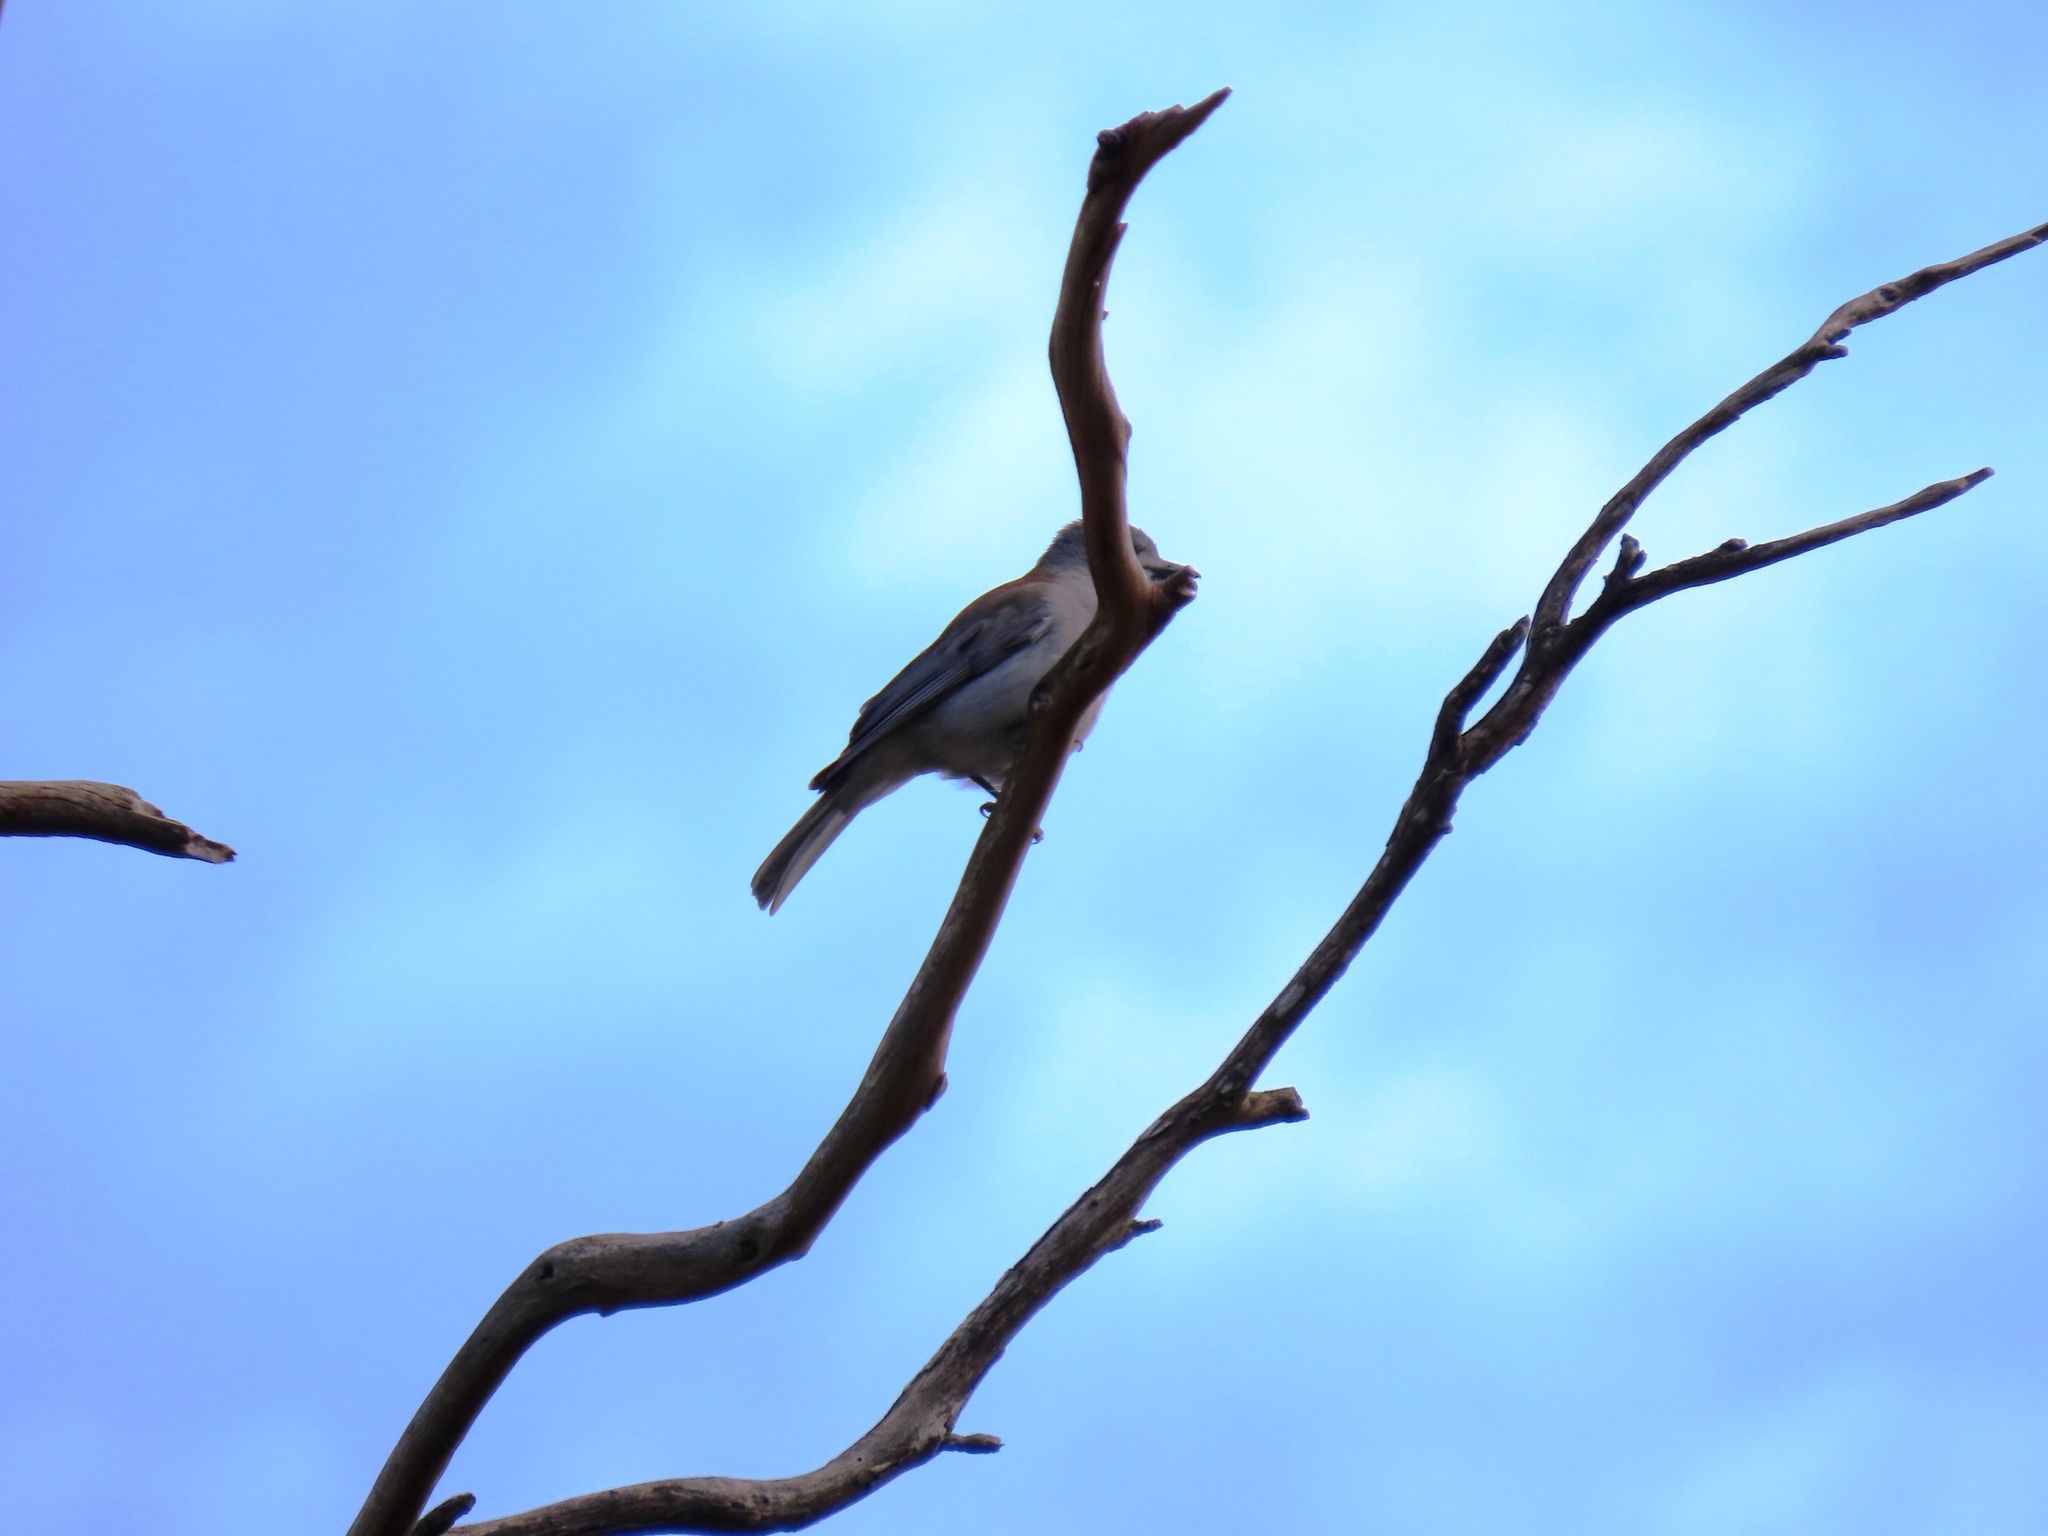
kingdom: Animalia
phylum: Chordata
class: Aves
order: Passeriformes
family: Pachycephalidae
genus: Colluricincla
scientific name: Colluricincla harmonica
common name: Grey shrikethrush
